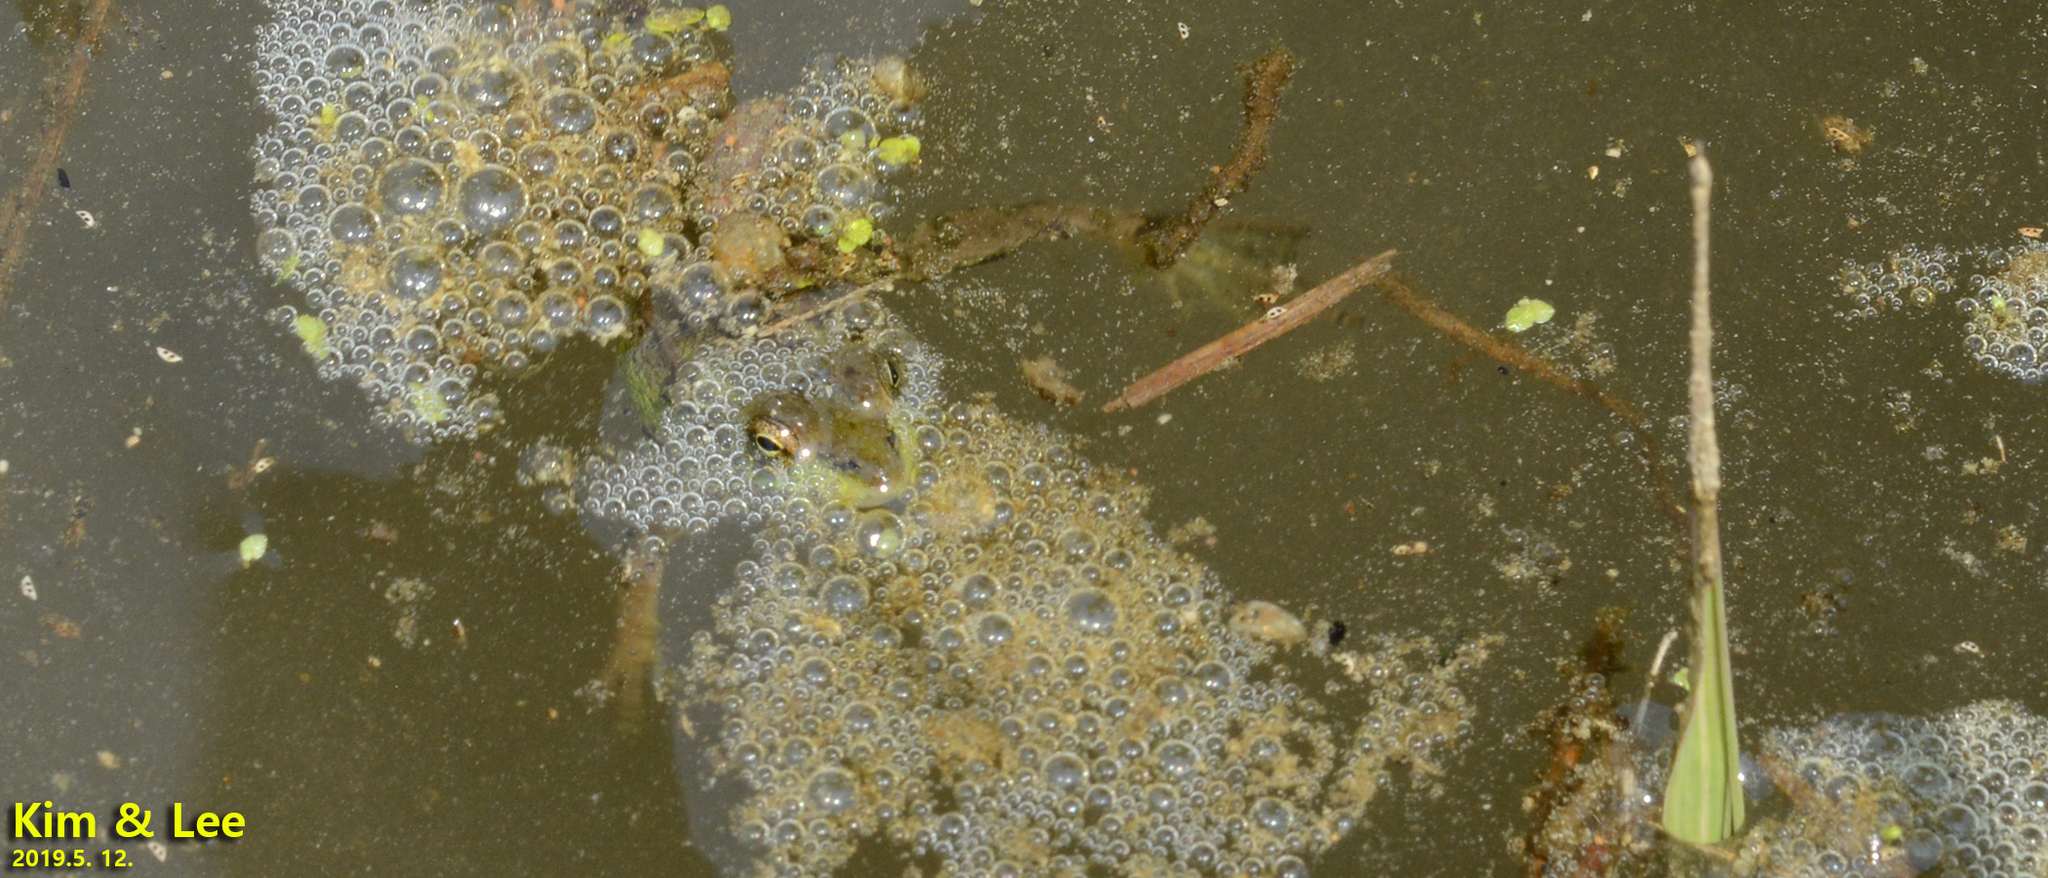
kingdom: Animalia
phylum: Chordata
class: Amphibia
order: Anura
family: Ranidae
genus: Pelophylax
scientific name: Pelophylax chosenicus
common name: Gold-spotted pond frog
